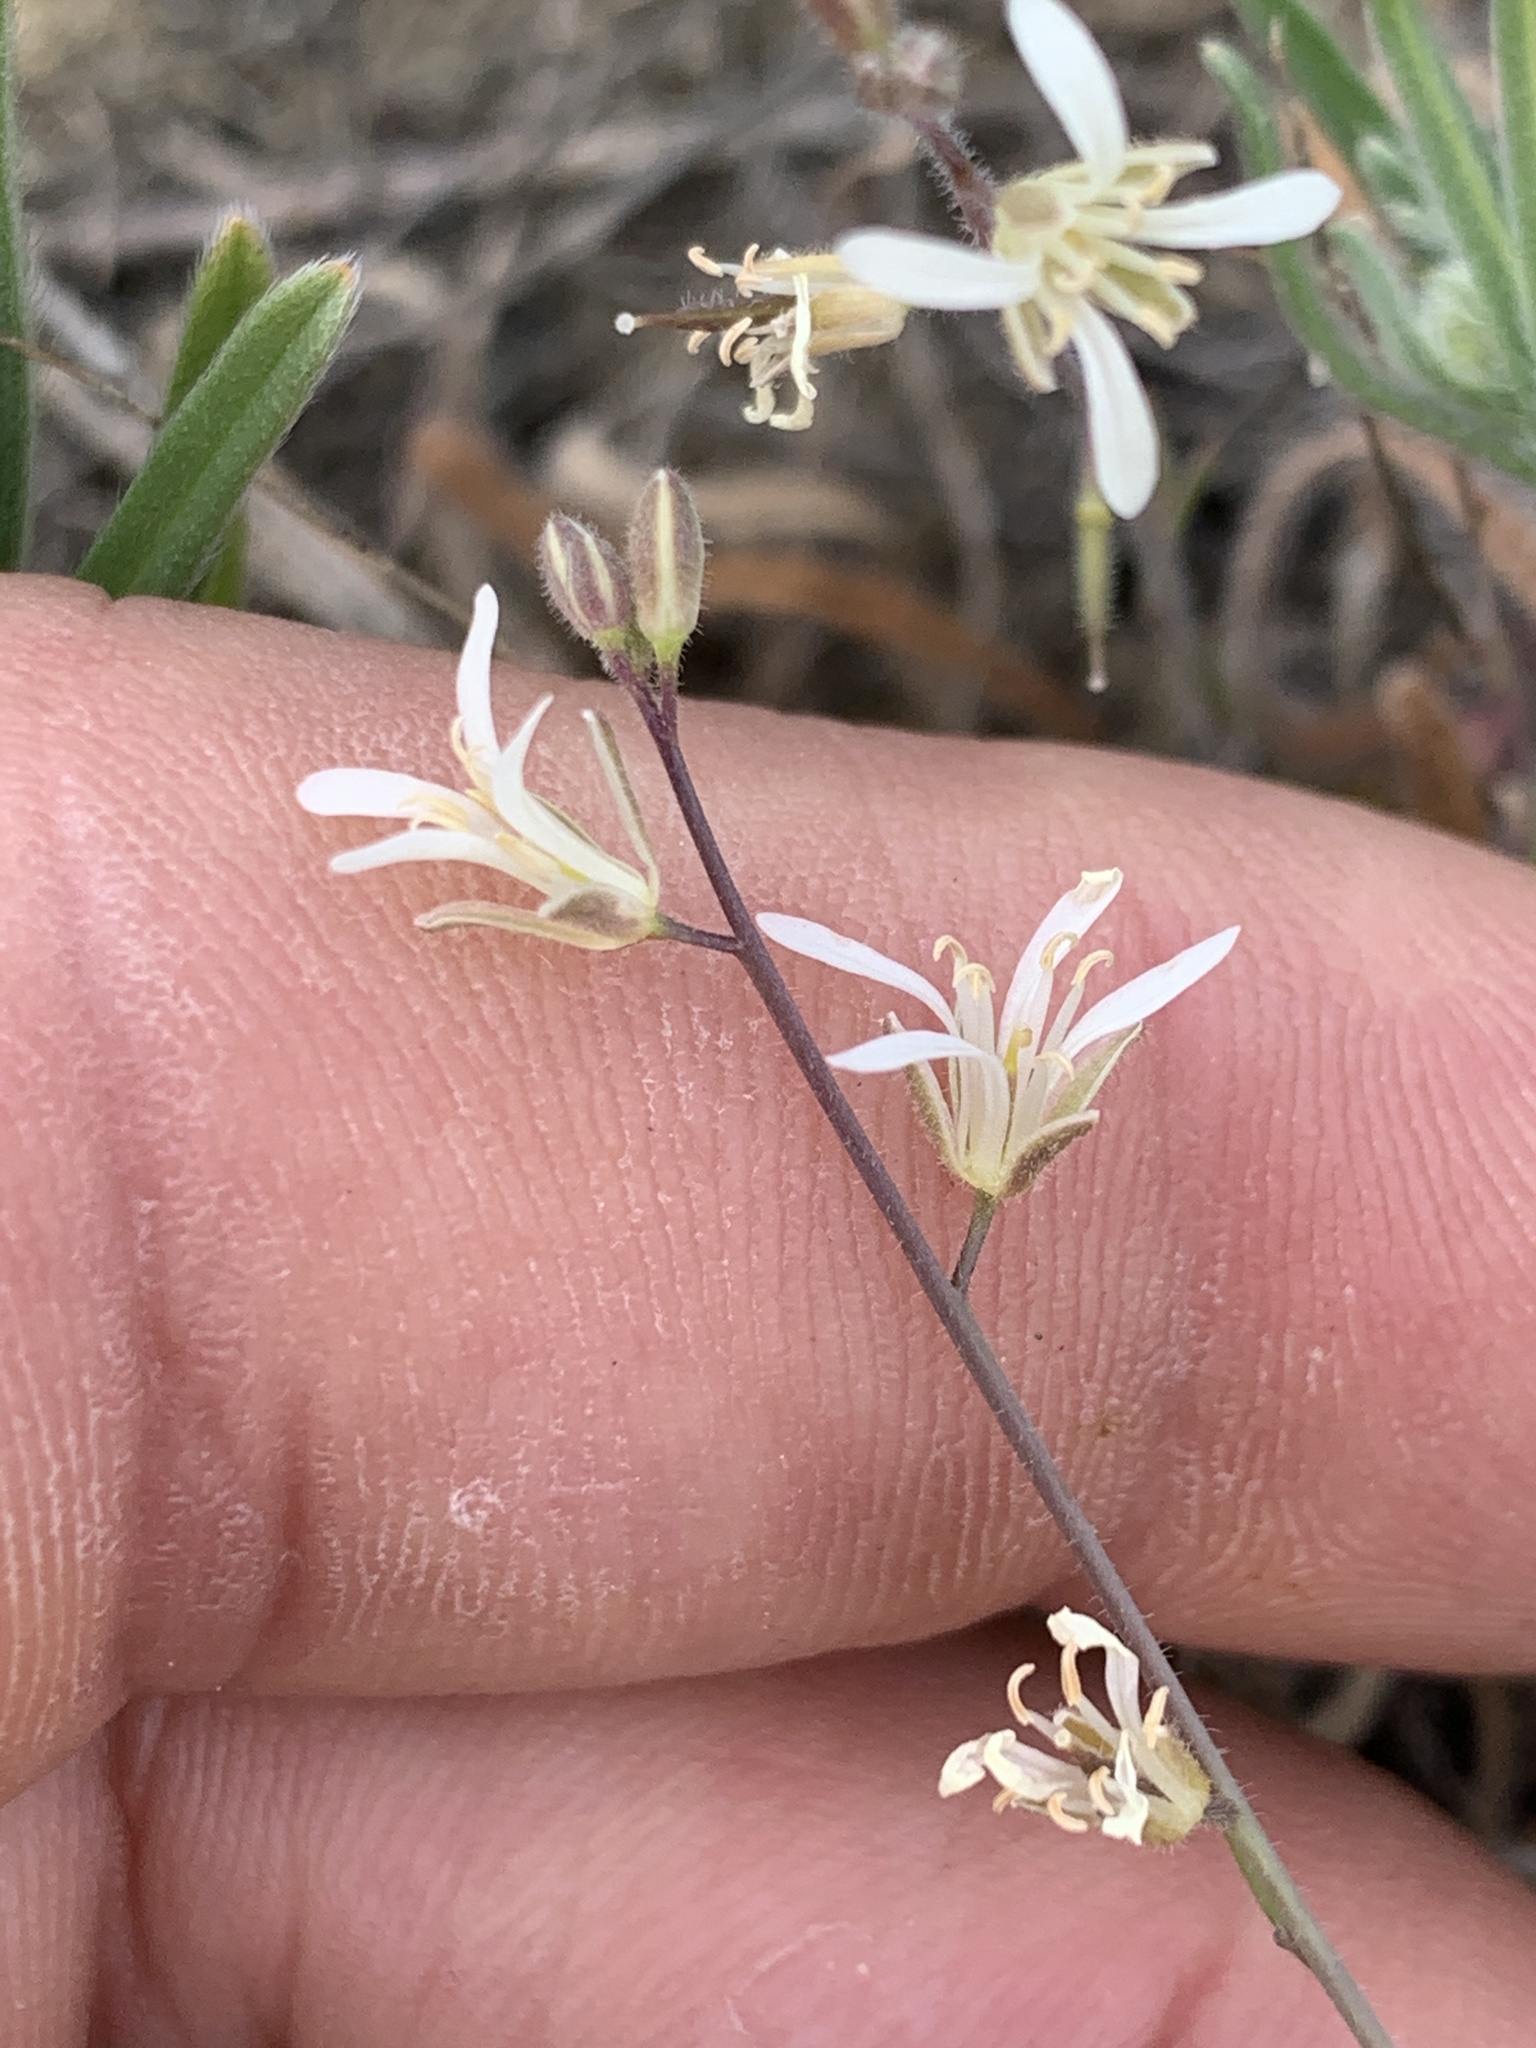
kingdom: Plantae
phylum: Tracheophyta
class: Magnoliopsida
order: Brassicales
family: Brassicaceae
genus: Streptanthus
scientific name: Streptanthus lasiophyllus
